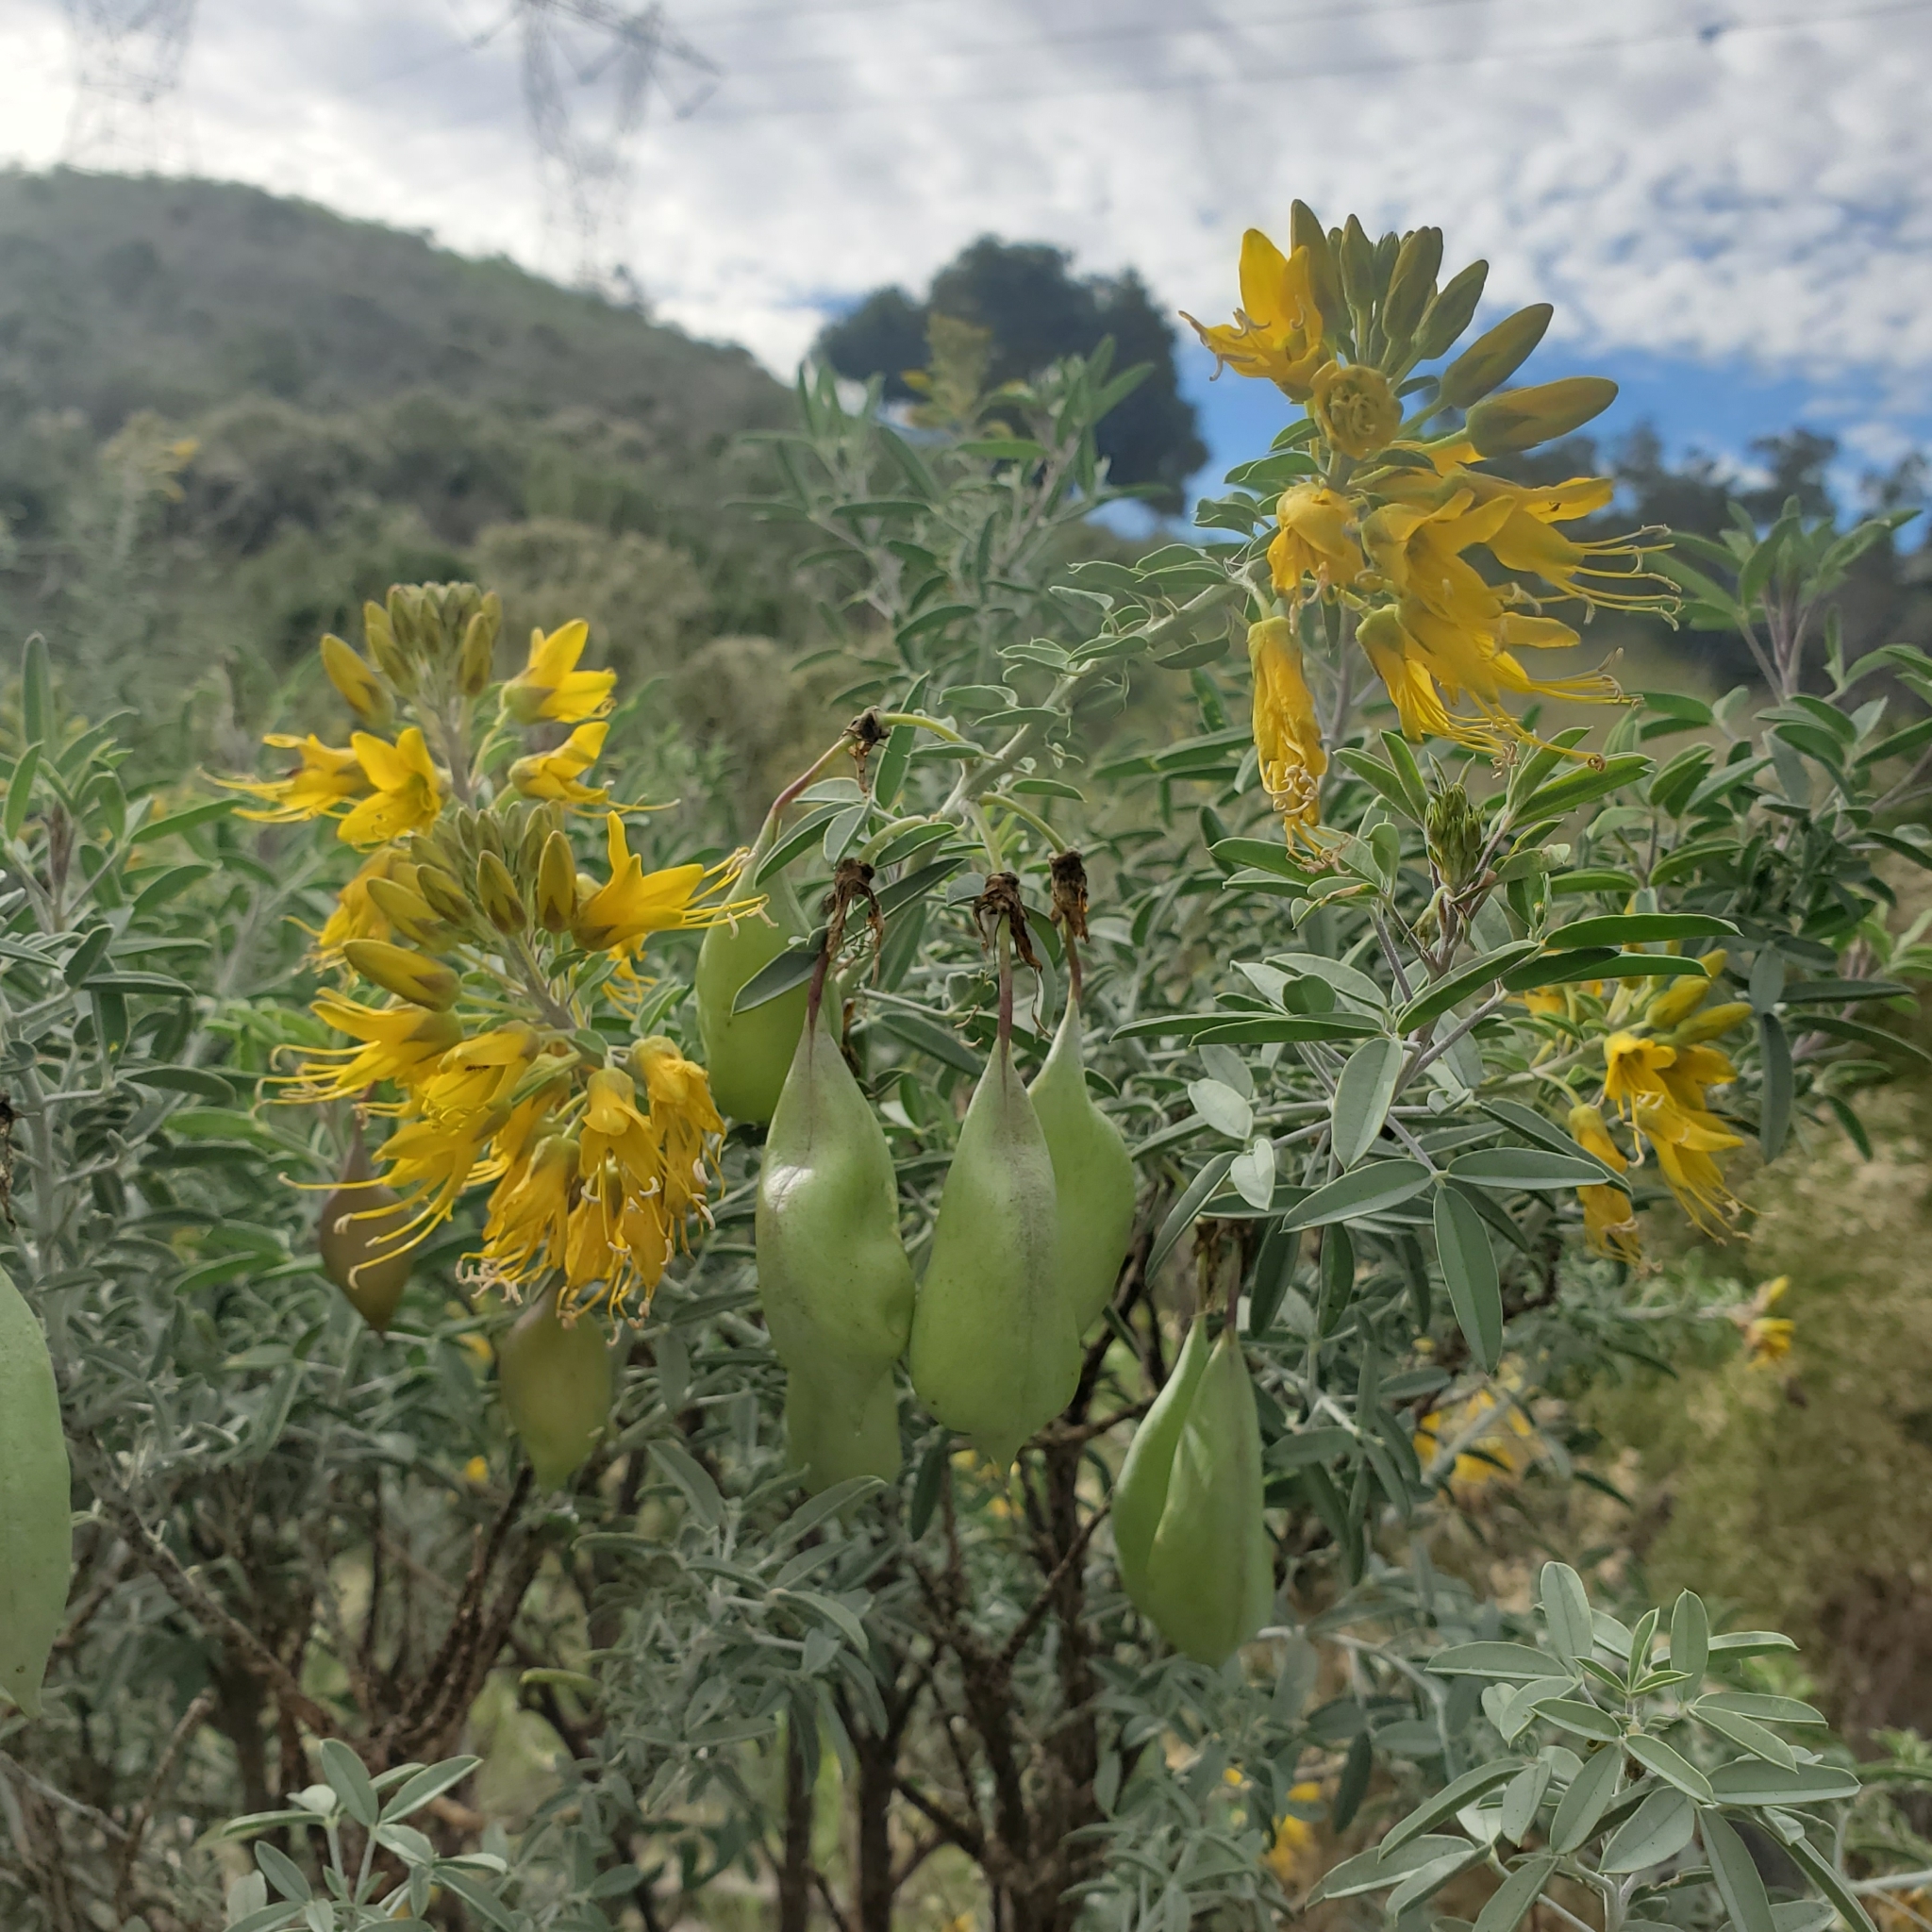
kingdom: Plantae
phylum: Tracheophyta
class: Magnoliopsida
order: Brassicales
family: Cleomaceae
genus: Cleomella
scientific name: Cleomella arborea
